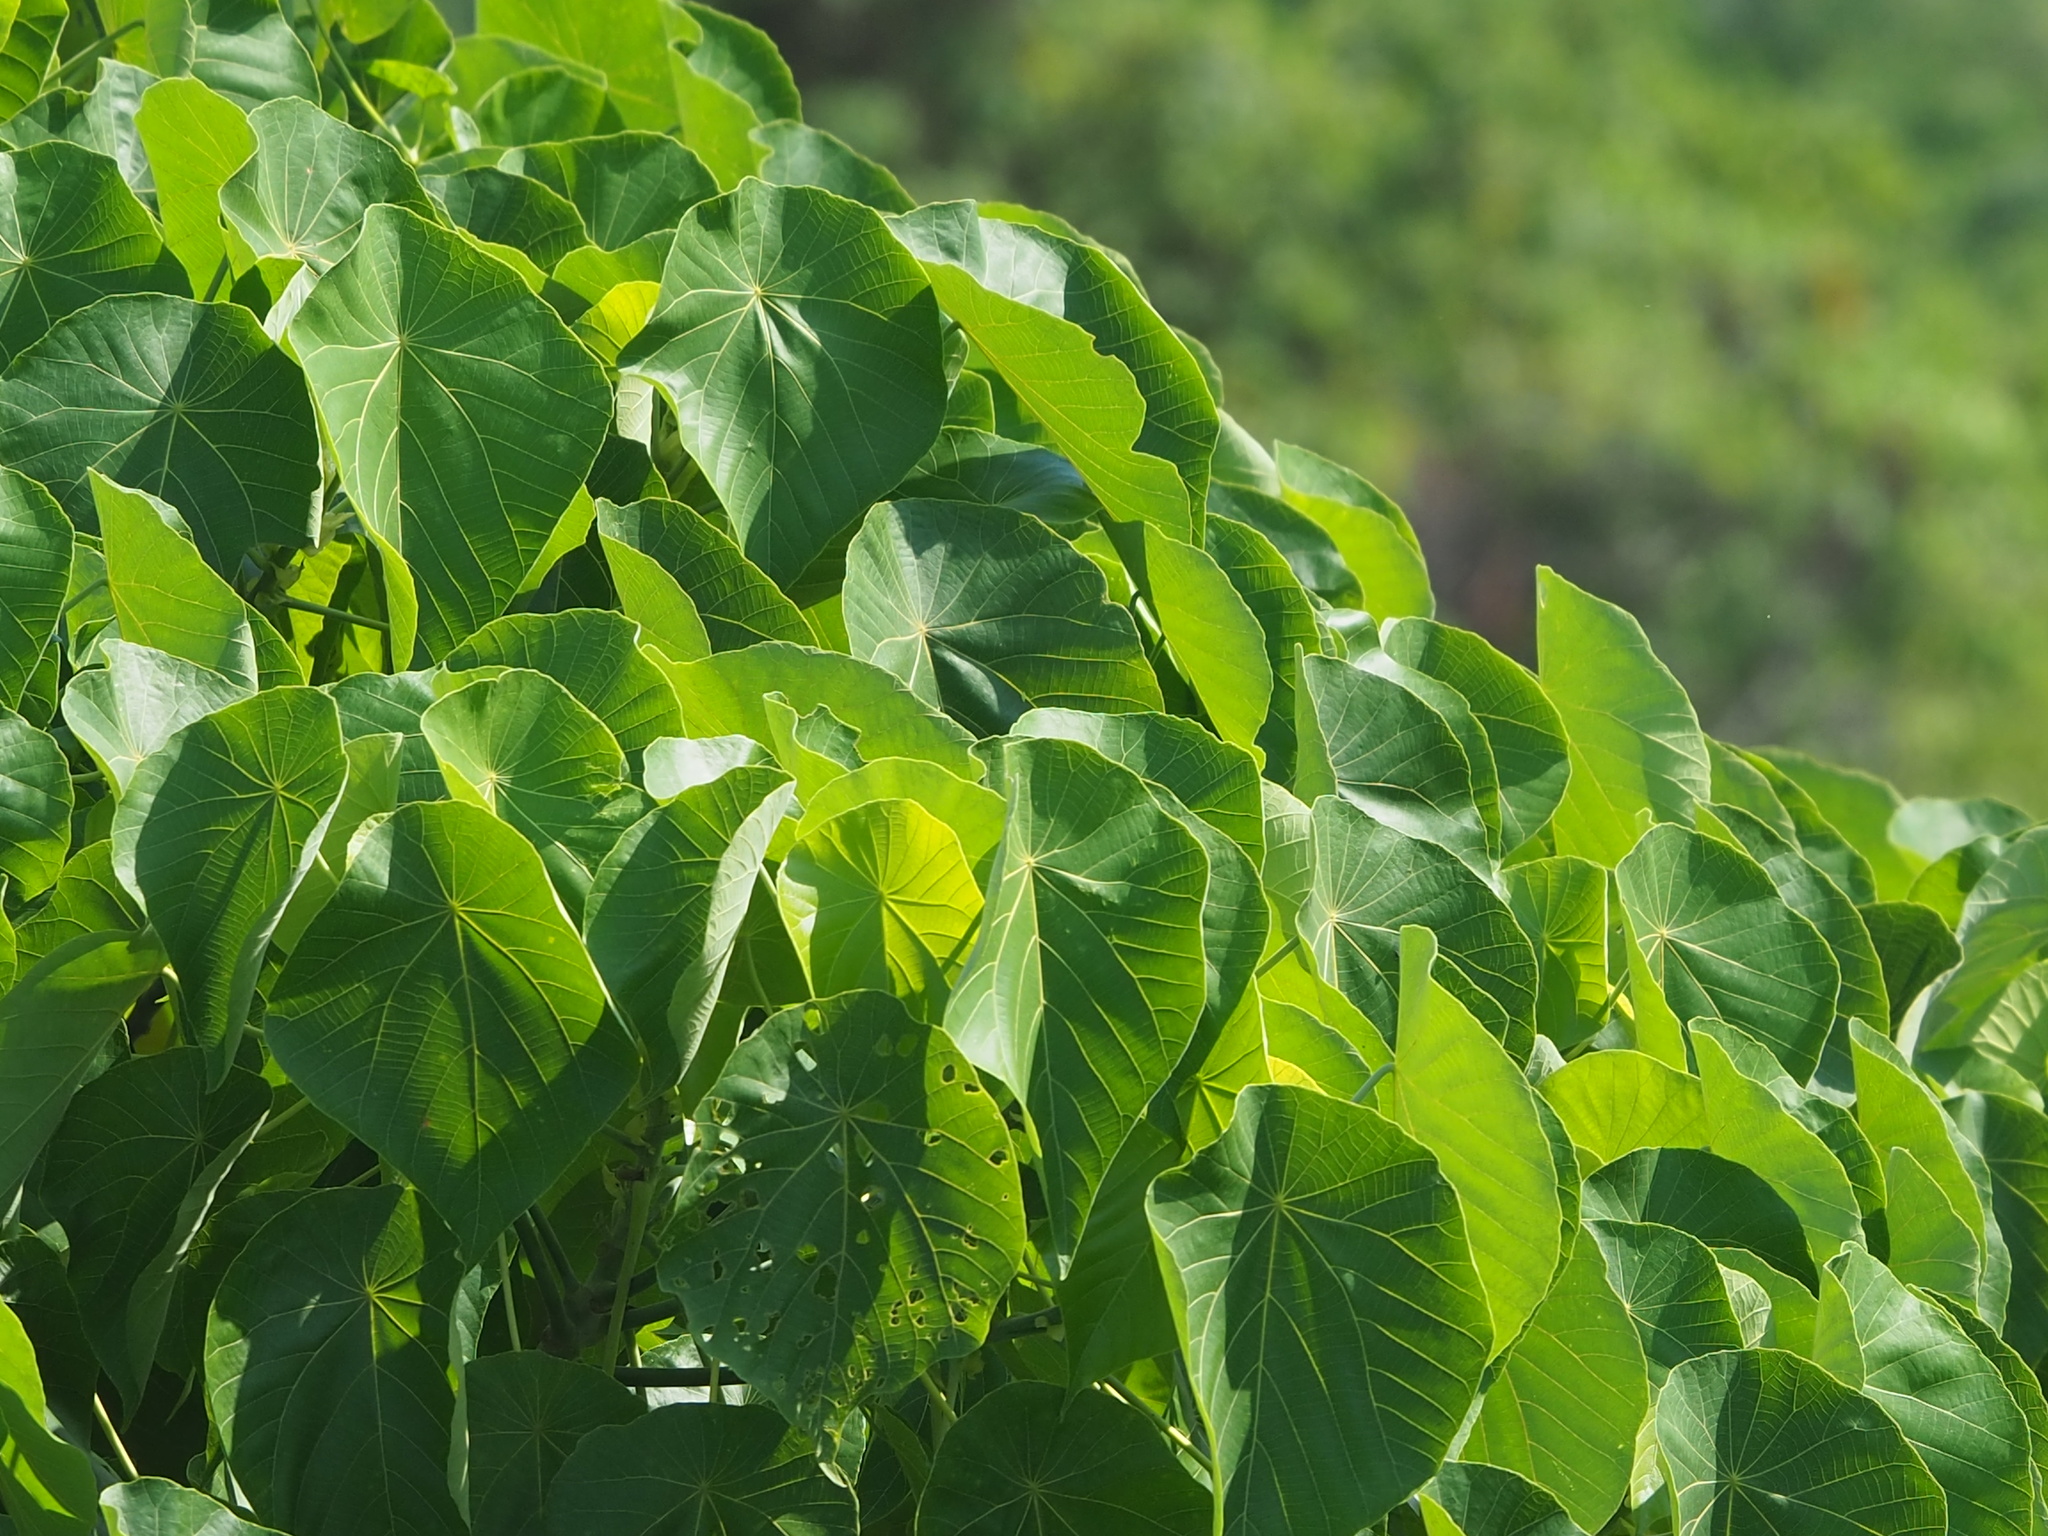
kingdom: Plantae
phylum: Tracheophyta
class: Magnoliopsida
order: Malpighiales
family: Euphorbiaceae
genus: Macaranga
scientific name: Macaranga tanarius
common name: Parasol leaf tree
